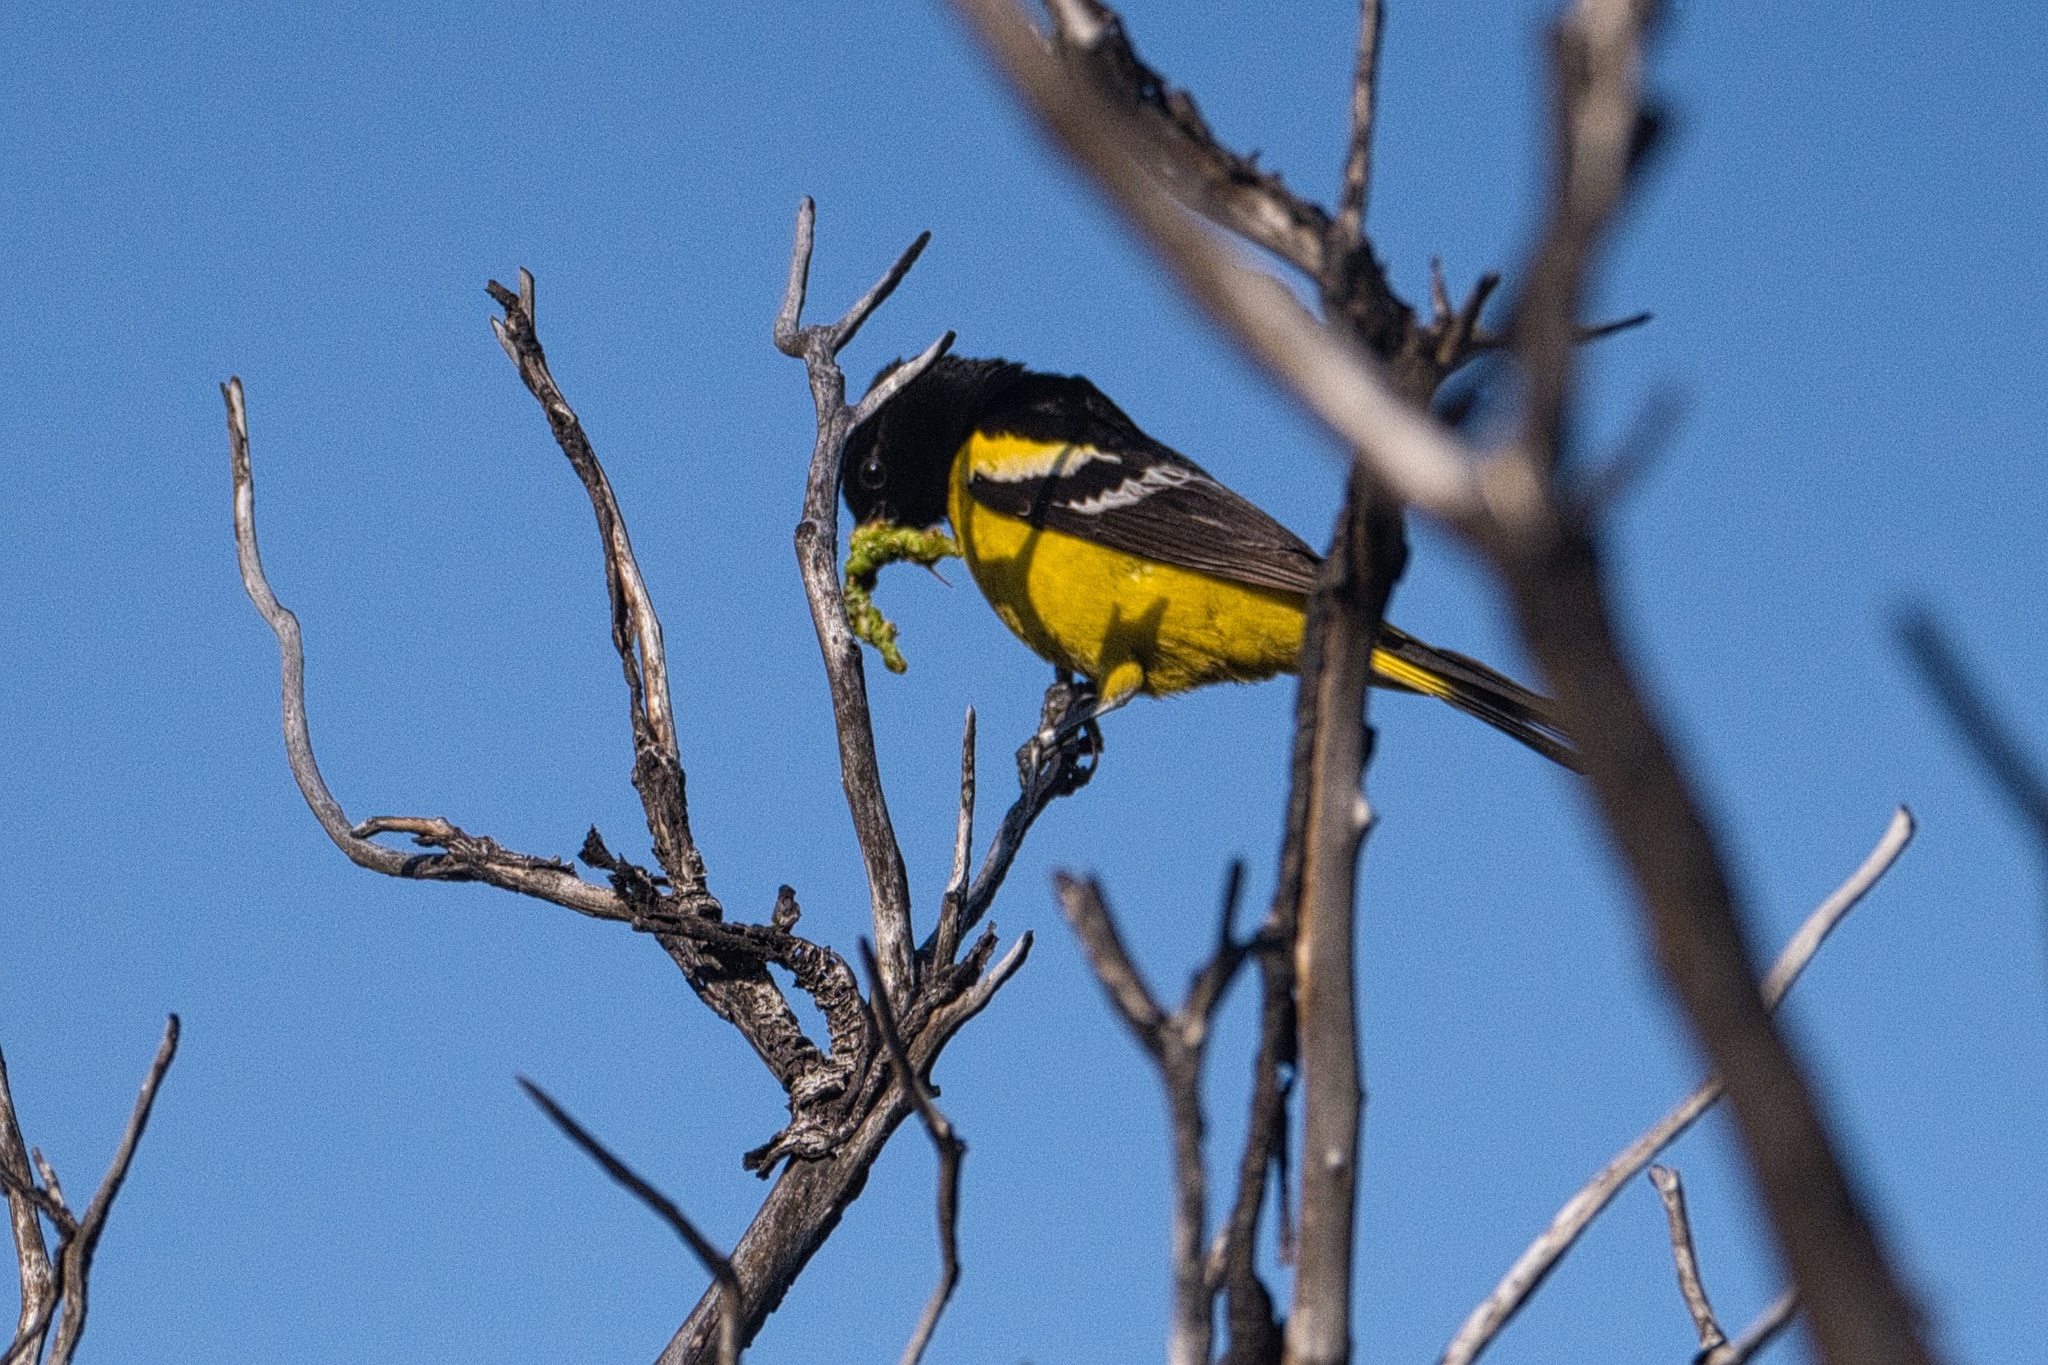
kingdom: Animalia
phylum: Chordata
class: Aves
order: Passeriformes
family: Icteridae
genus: Icterus
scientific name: Icterus parisorum
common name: Scott's oriole
